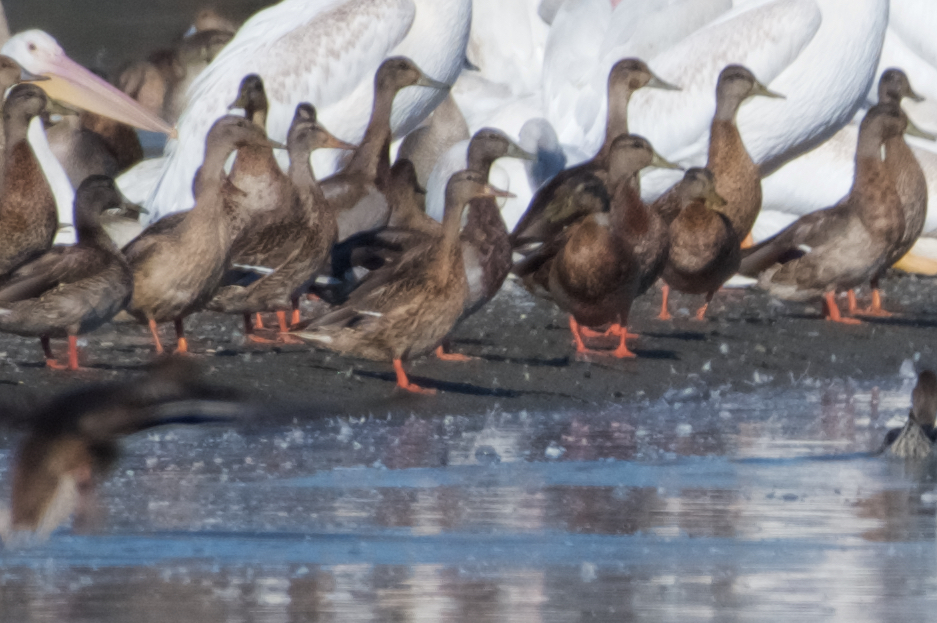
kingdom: Animalia
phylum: Chordata
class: Aves
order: Anseriformes
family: Anatidae
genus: Anas
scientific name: Anas platyrhynchos
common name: Mallard
